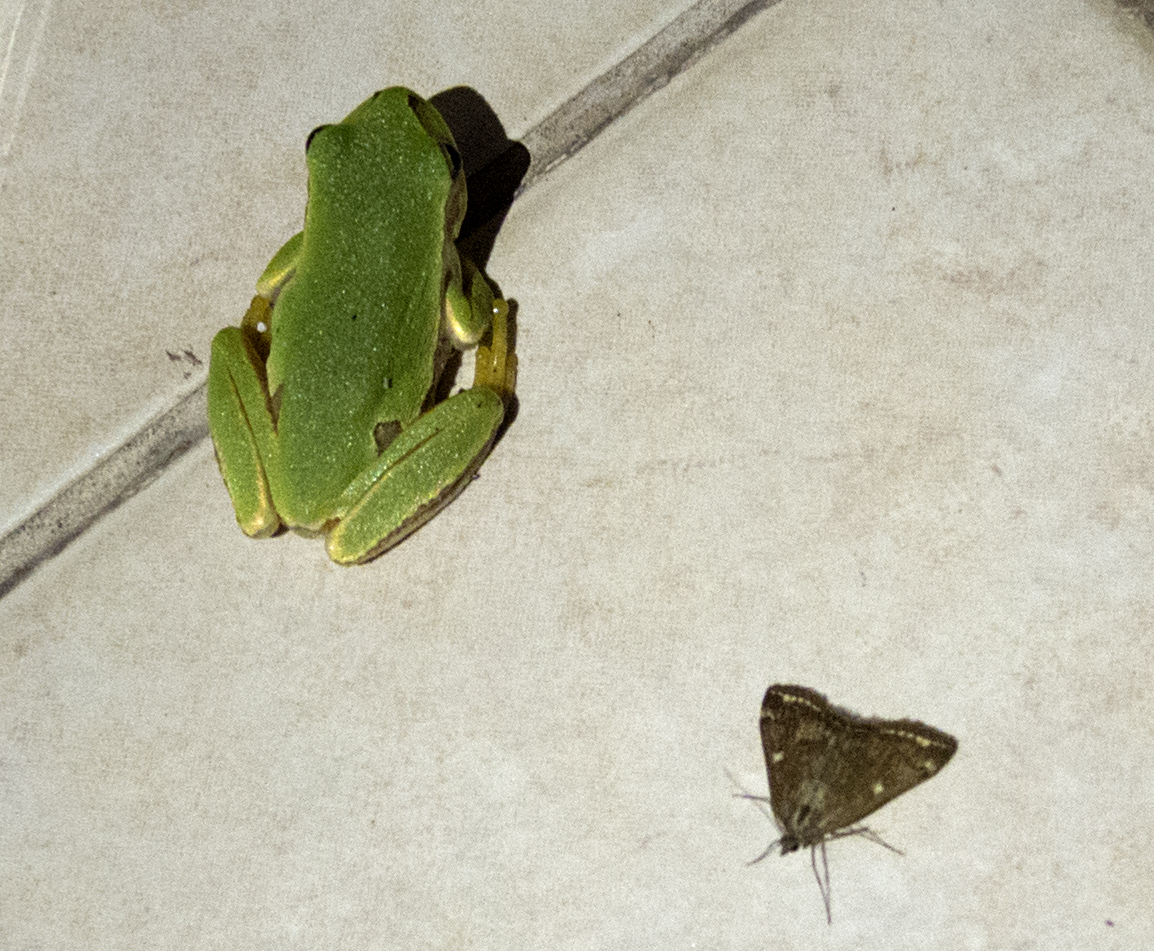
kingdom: Animalia
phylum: Chordata
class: Amphibia
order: Anura
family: Hylidae
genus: Hyla
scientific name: Hyla orientalis
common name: Caucasian treefrog
